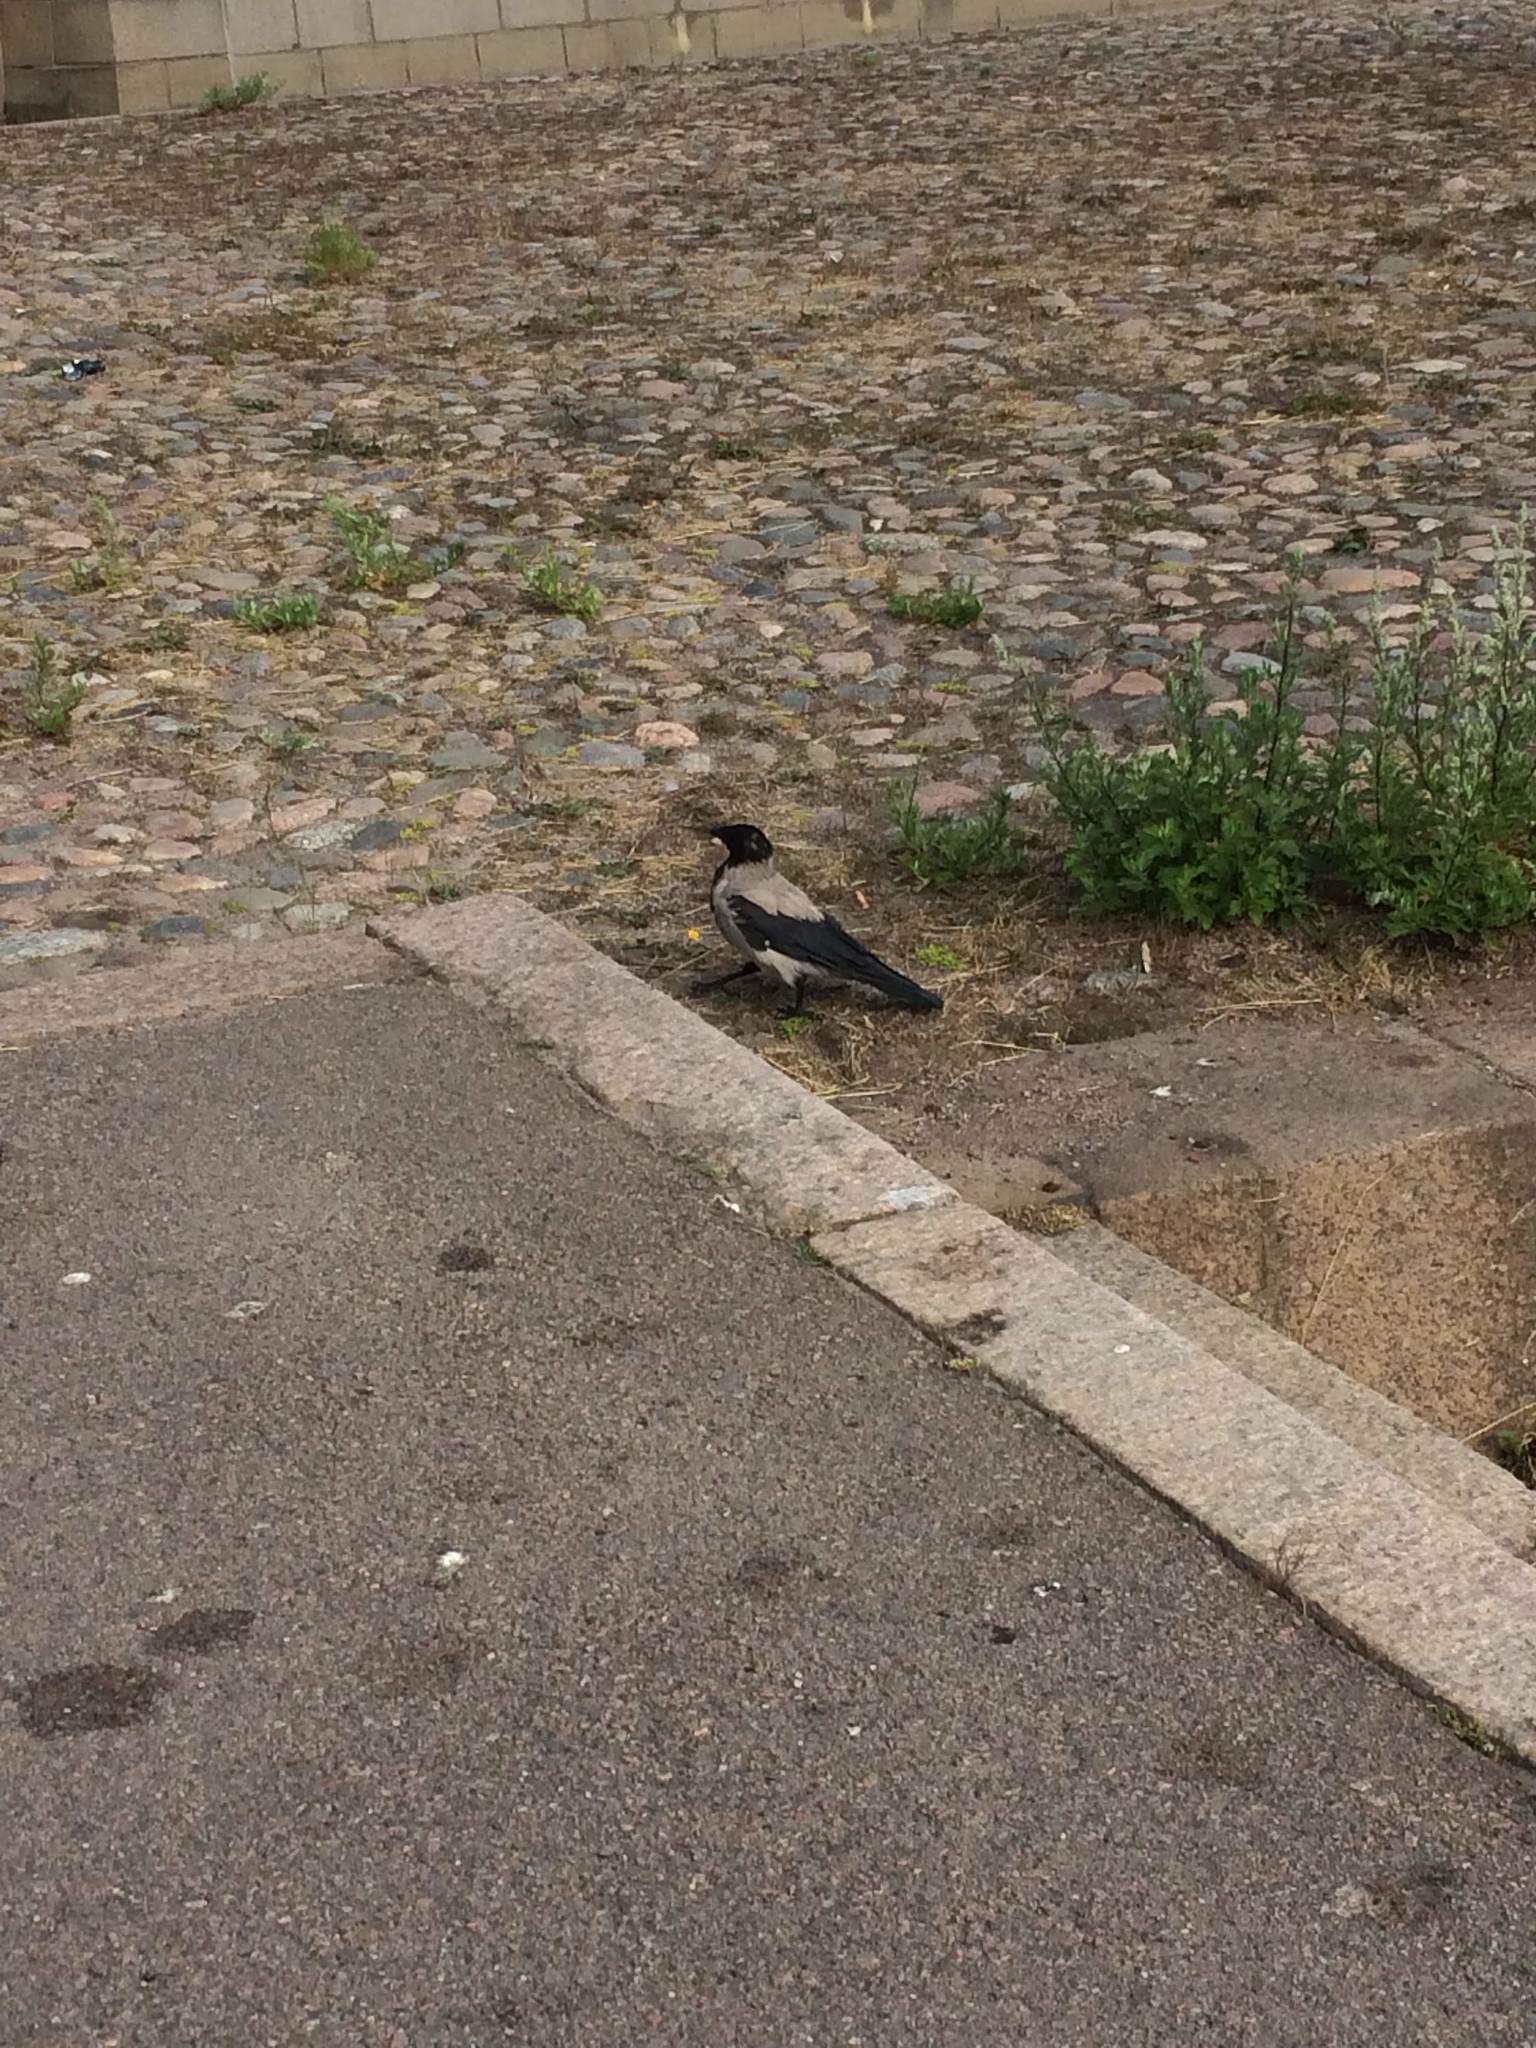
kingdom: Animalia
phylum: Chordata
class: Aves
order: Passeriformes
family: Corvidae
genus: Corvus
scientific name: Corvus cornix
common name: Hooded crow
